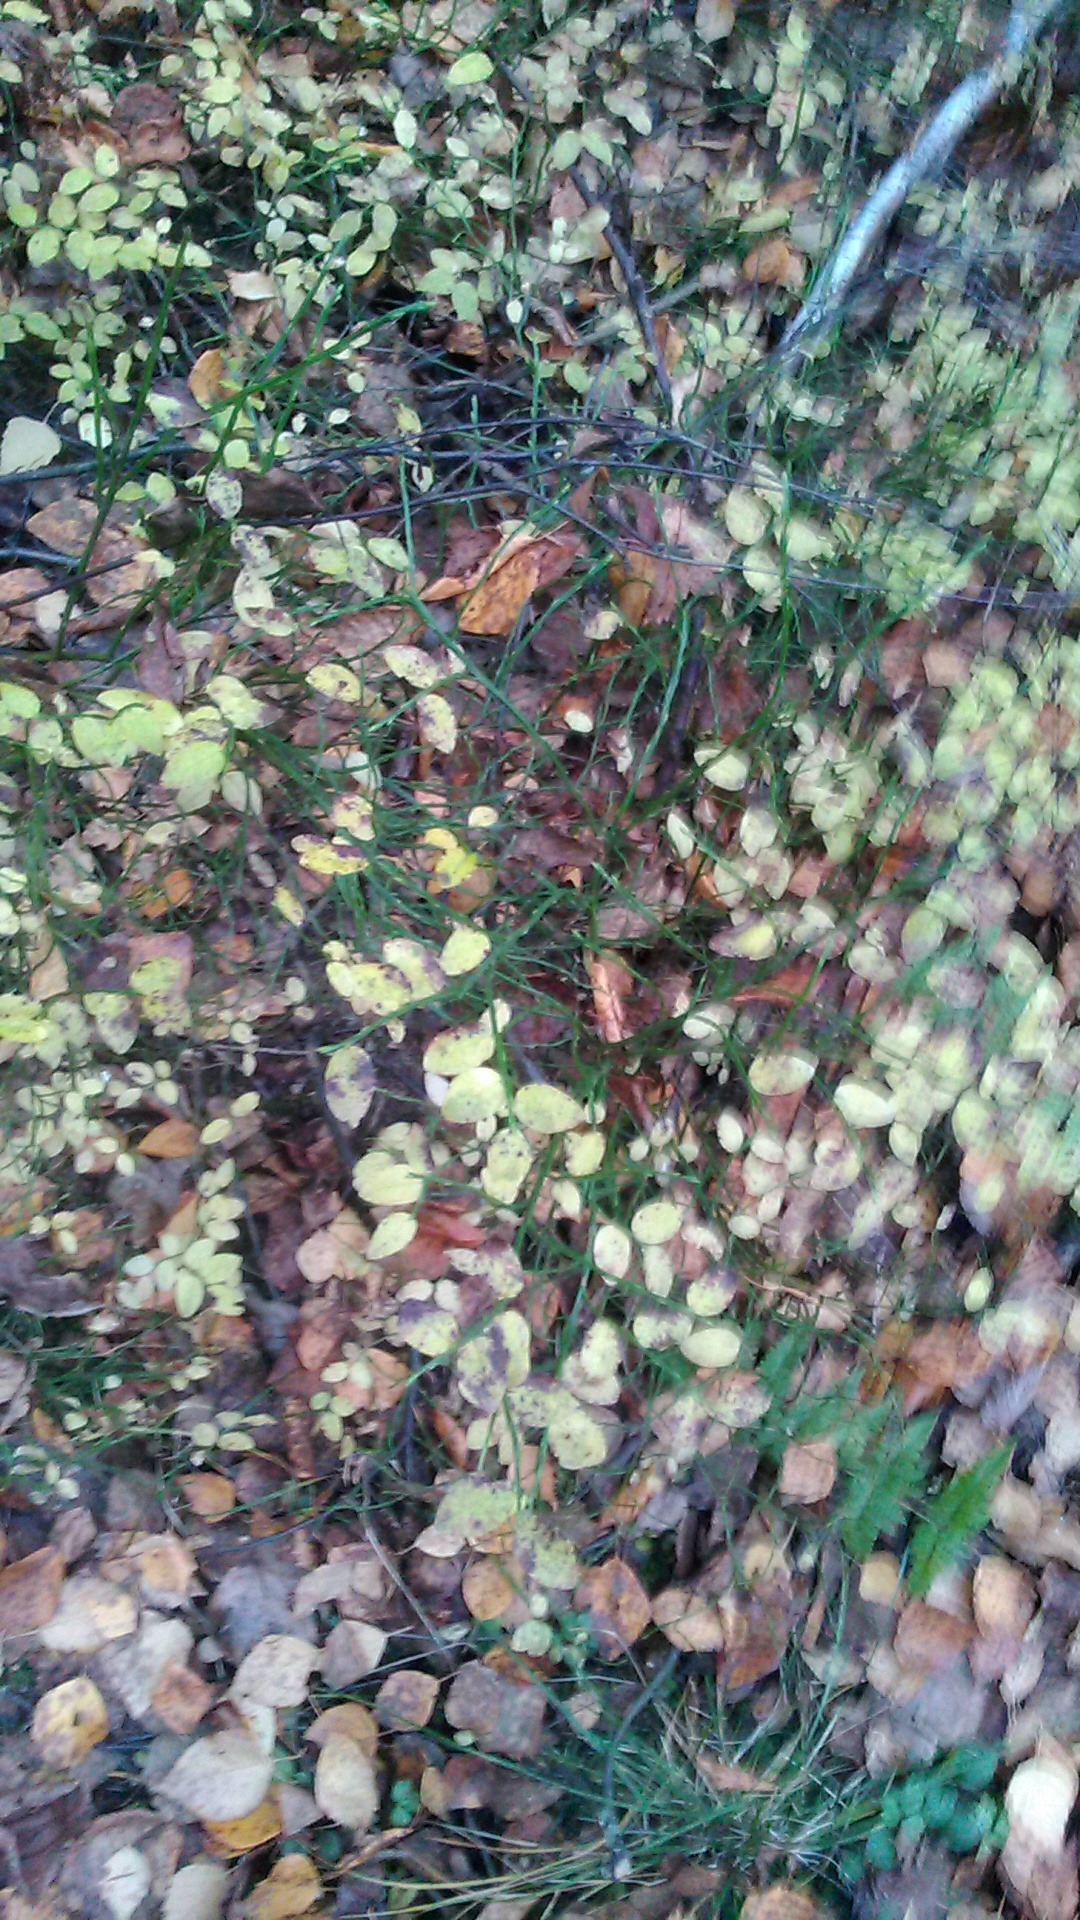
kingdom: Plantae
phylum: Tracheophyta
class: Magnoliopsida
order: Ericales
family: Ericaceae
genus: Vaccinium
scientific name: Vaccinium myrtillus
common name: Bilberry
